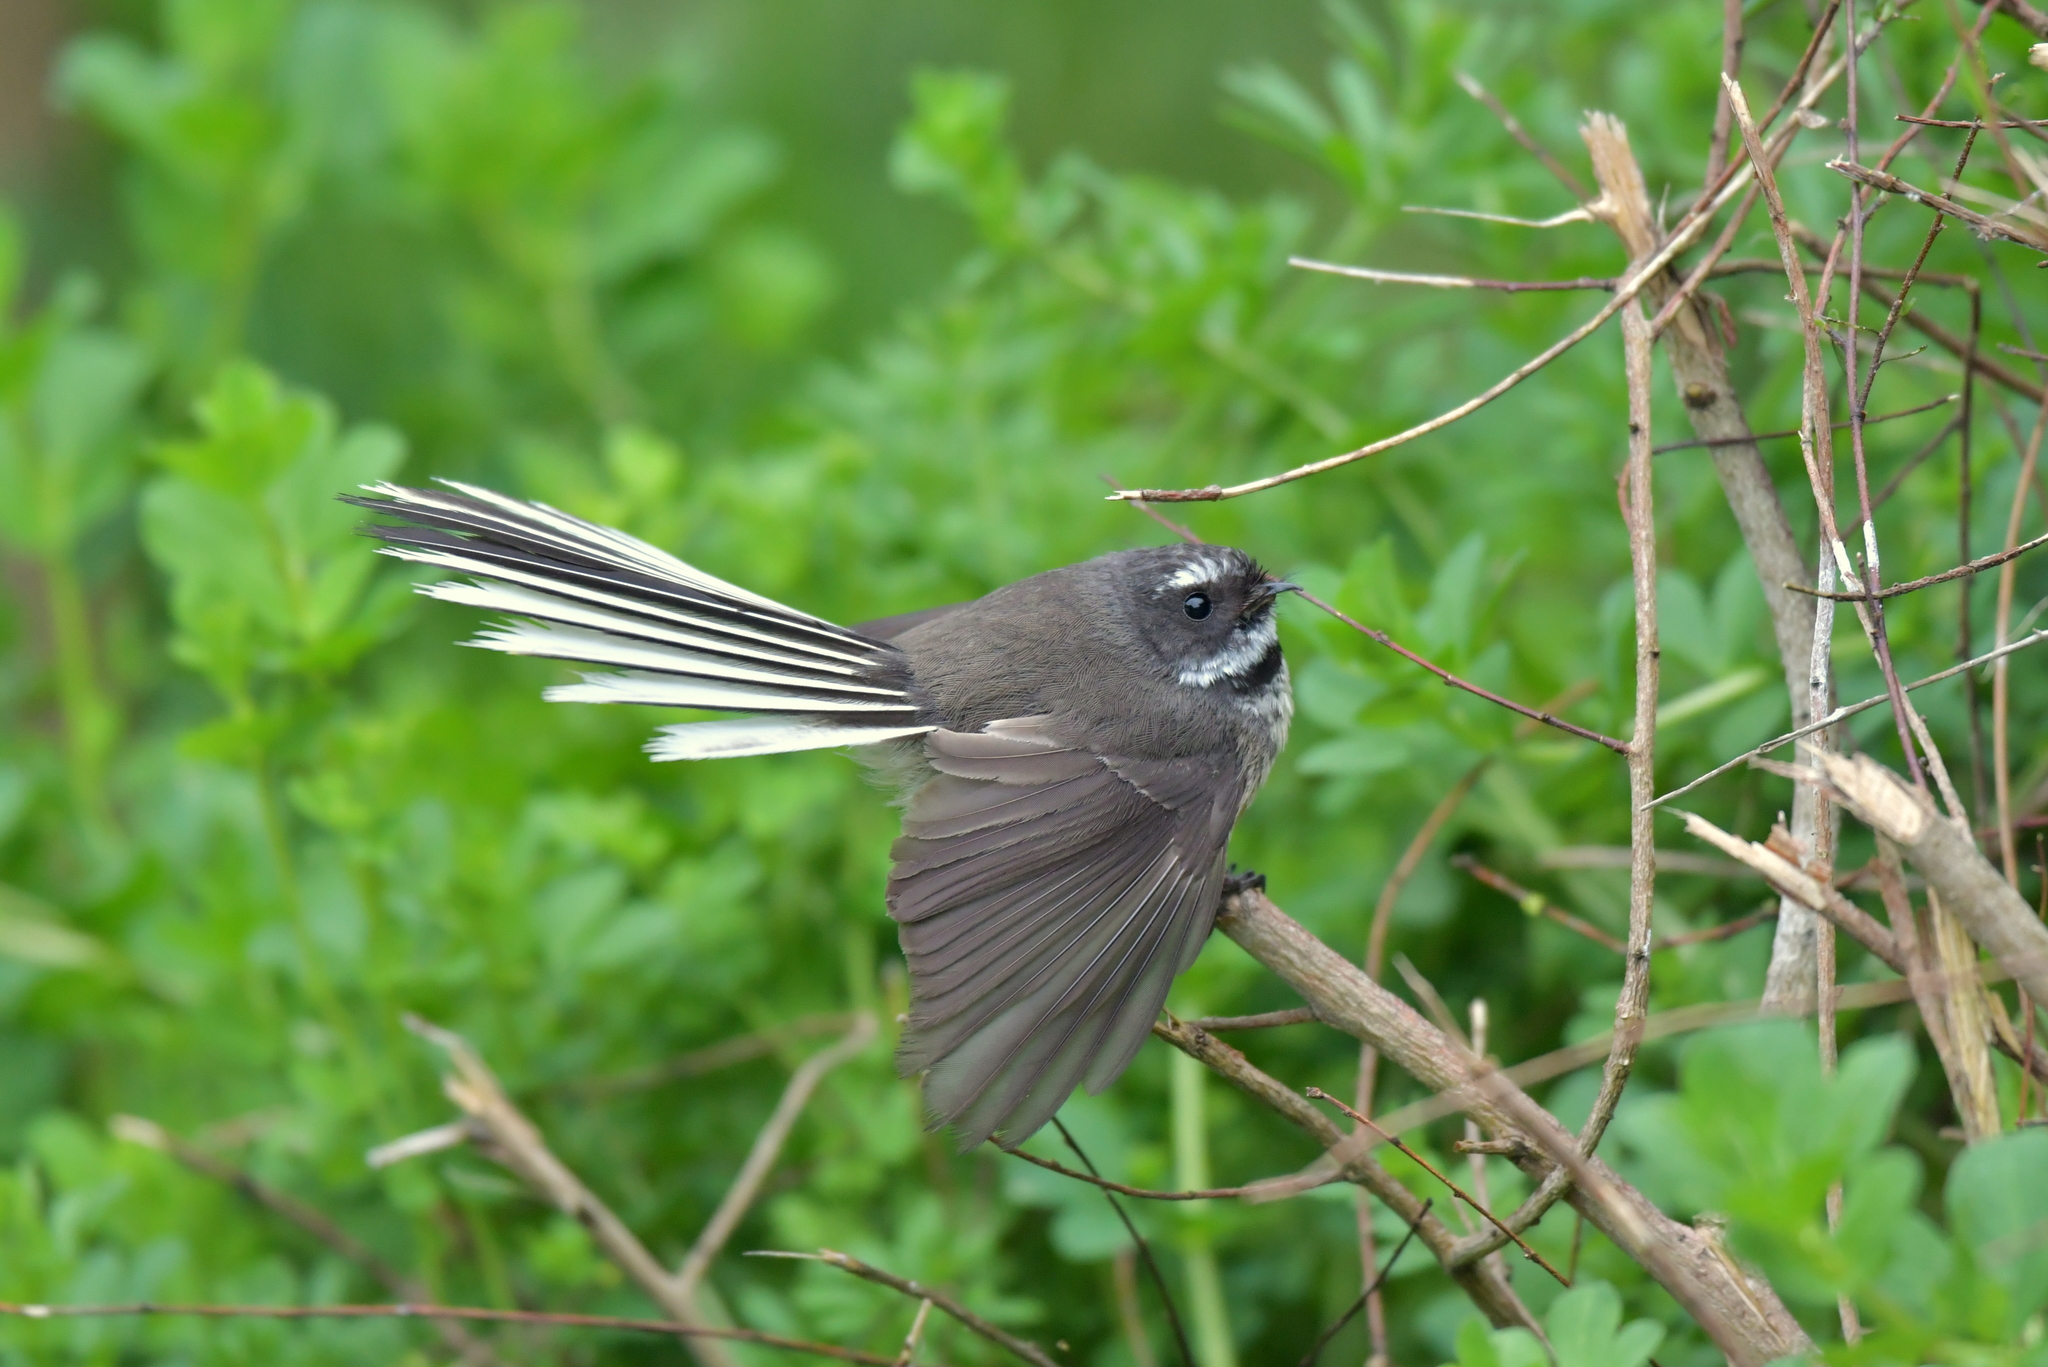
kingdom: Animalia
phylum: Chordata
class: Aves
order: Passeriformes
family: Rhipiduridae
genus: Rhipidura
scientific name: Rhipidura fuliginosa
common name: New zealand fantail
